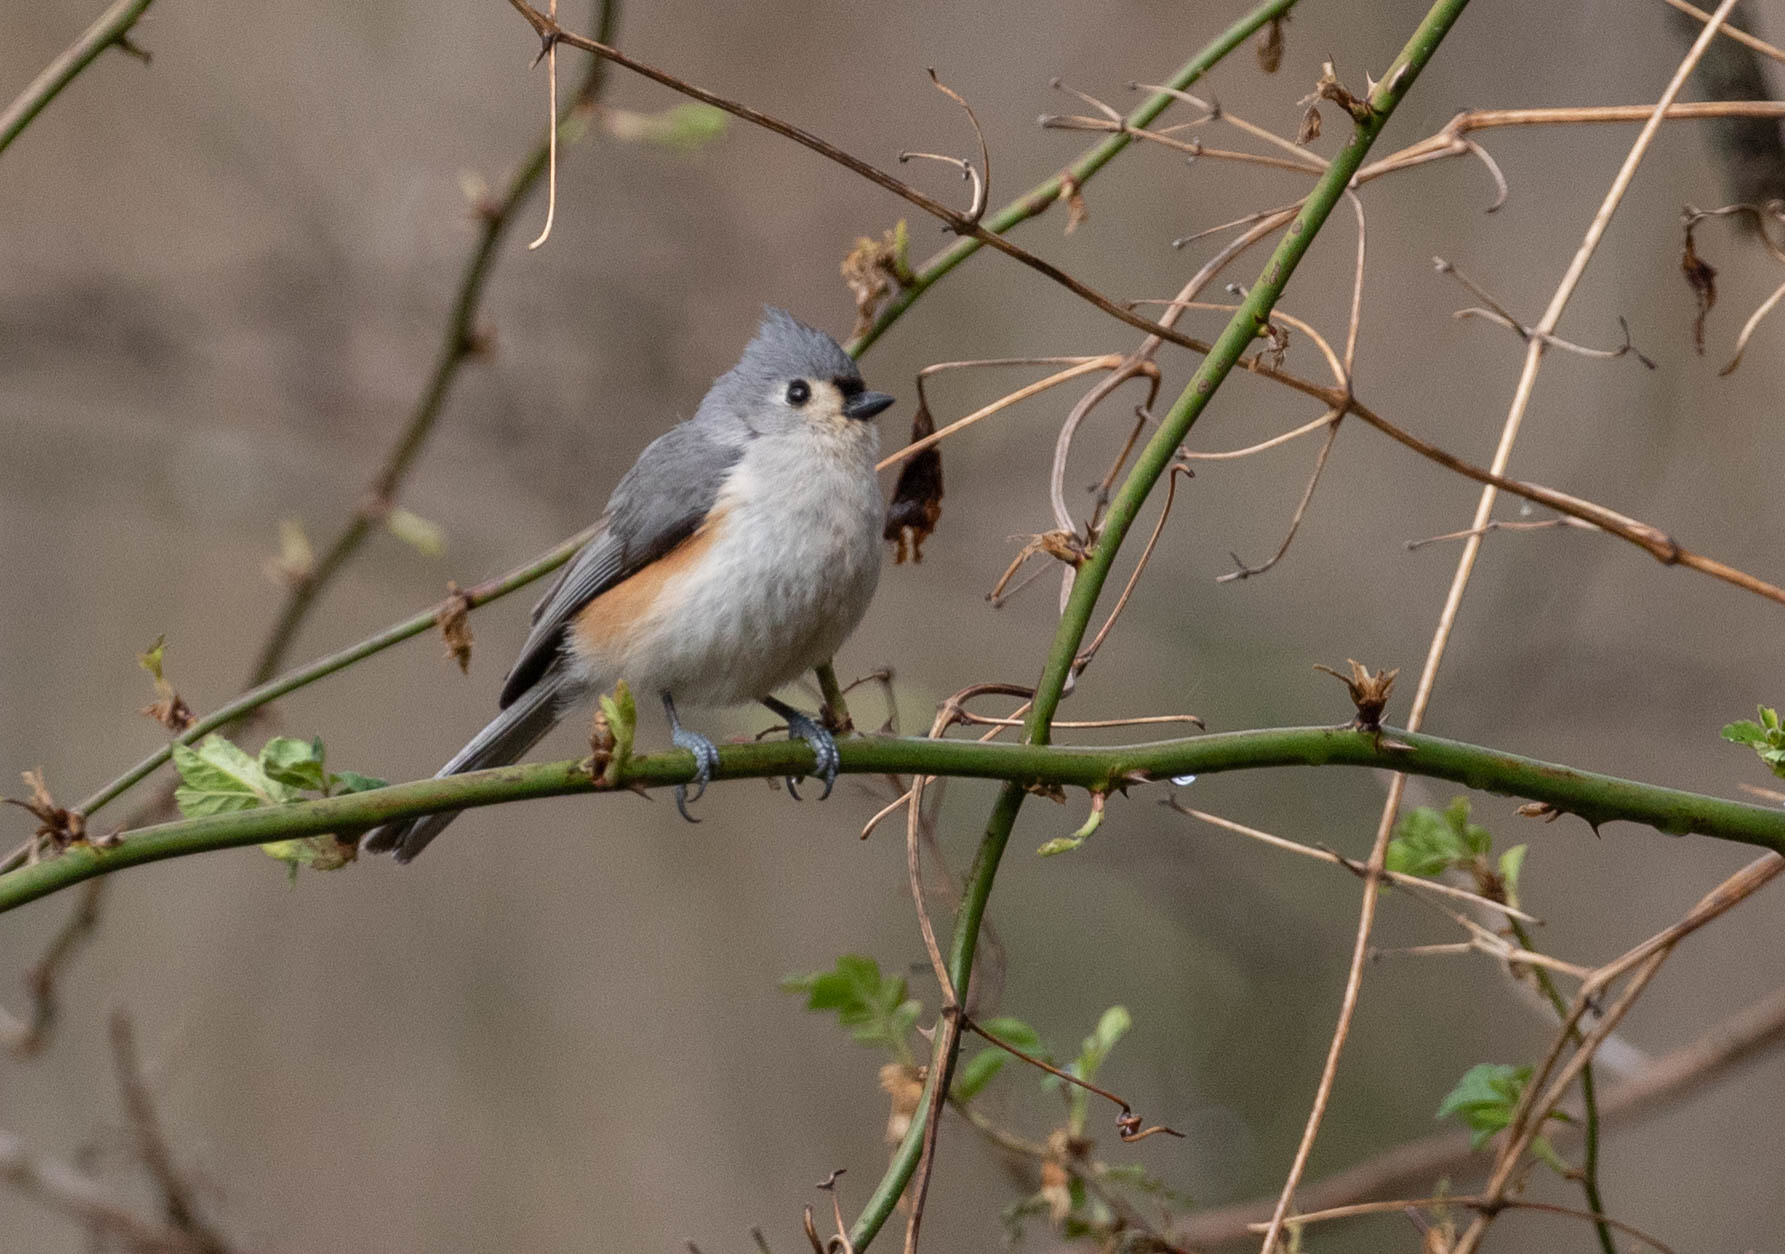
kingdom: Animalia
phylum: Chordata
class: Aves
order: Passeriformes
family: Paridae
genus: Baeolophus
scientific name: Baeolophus bicolor
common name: Tufted titmouse
